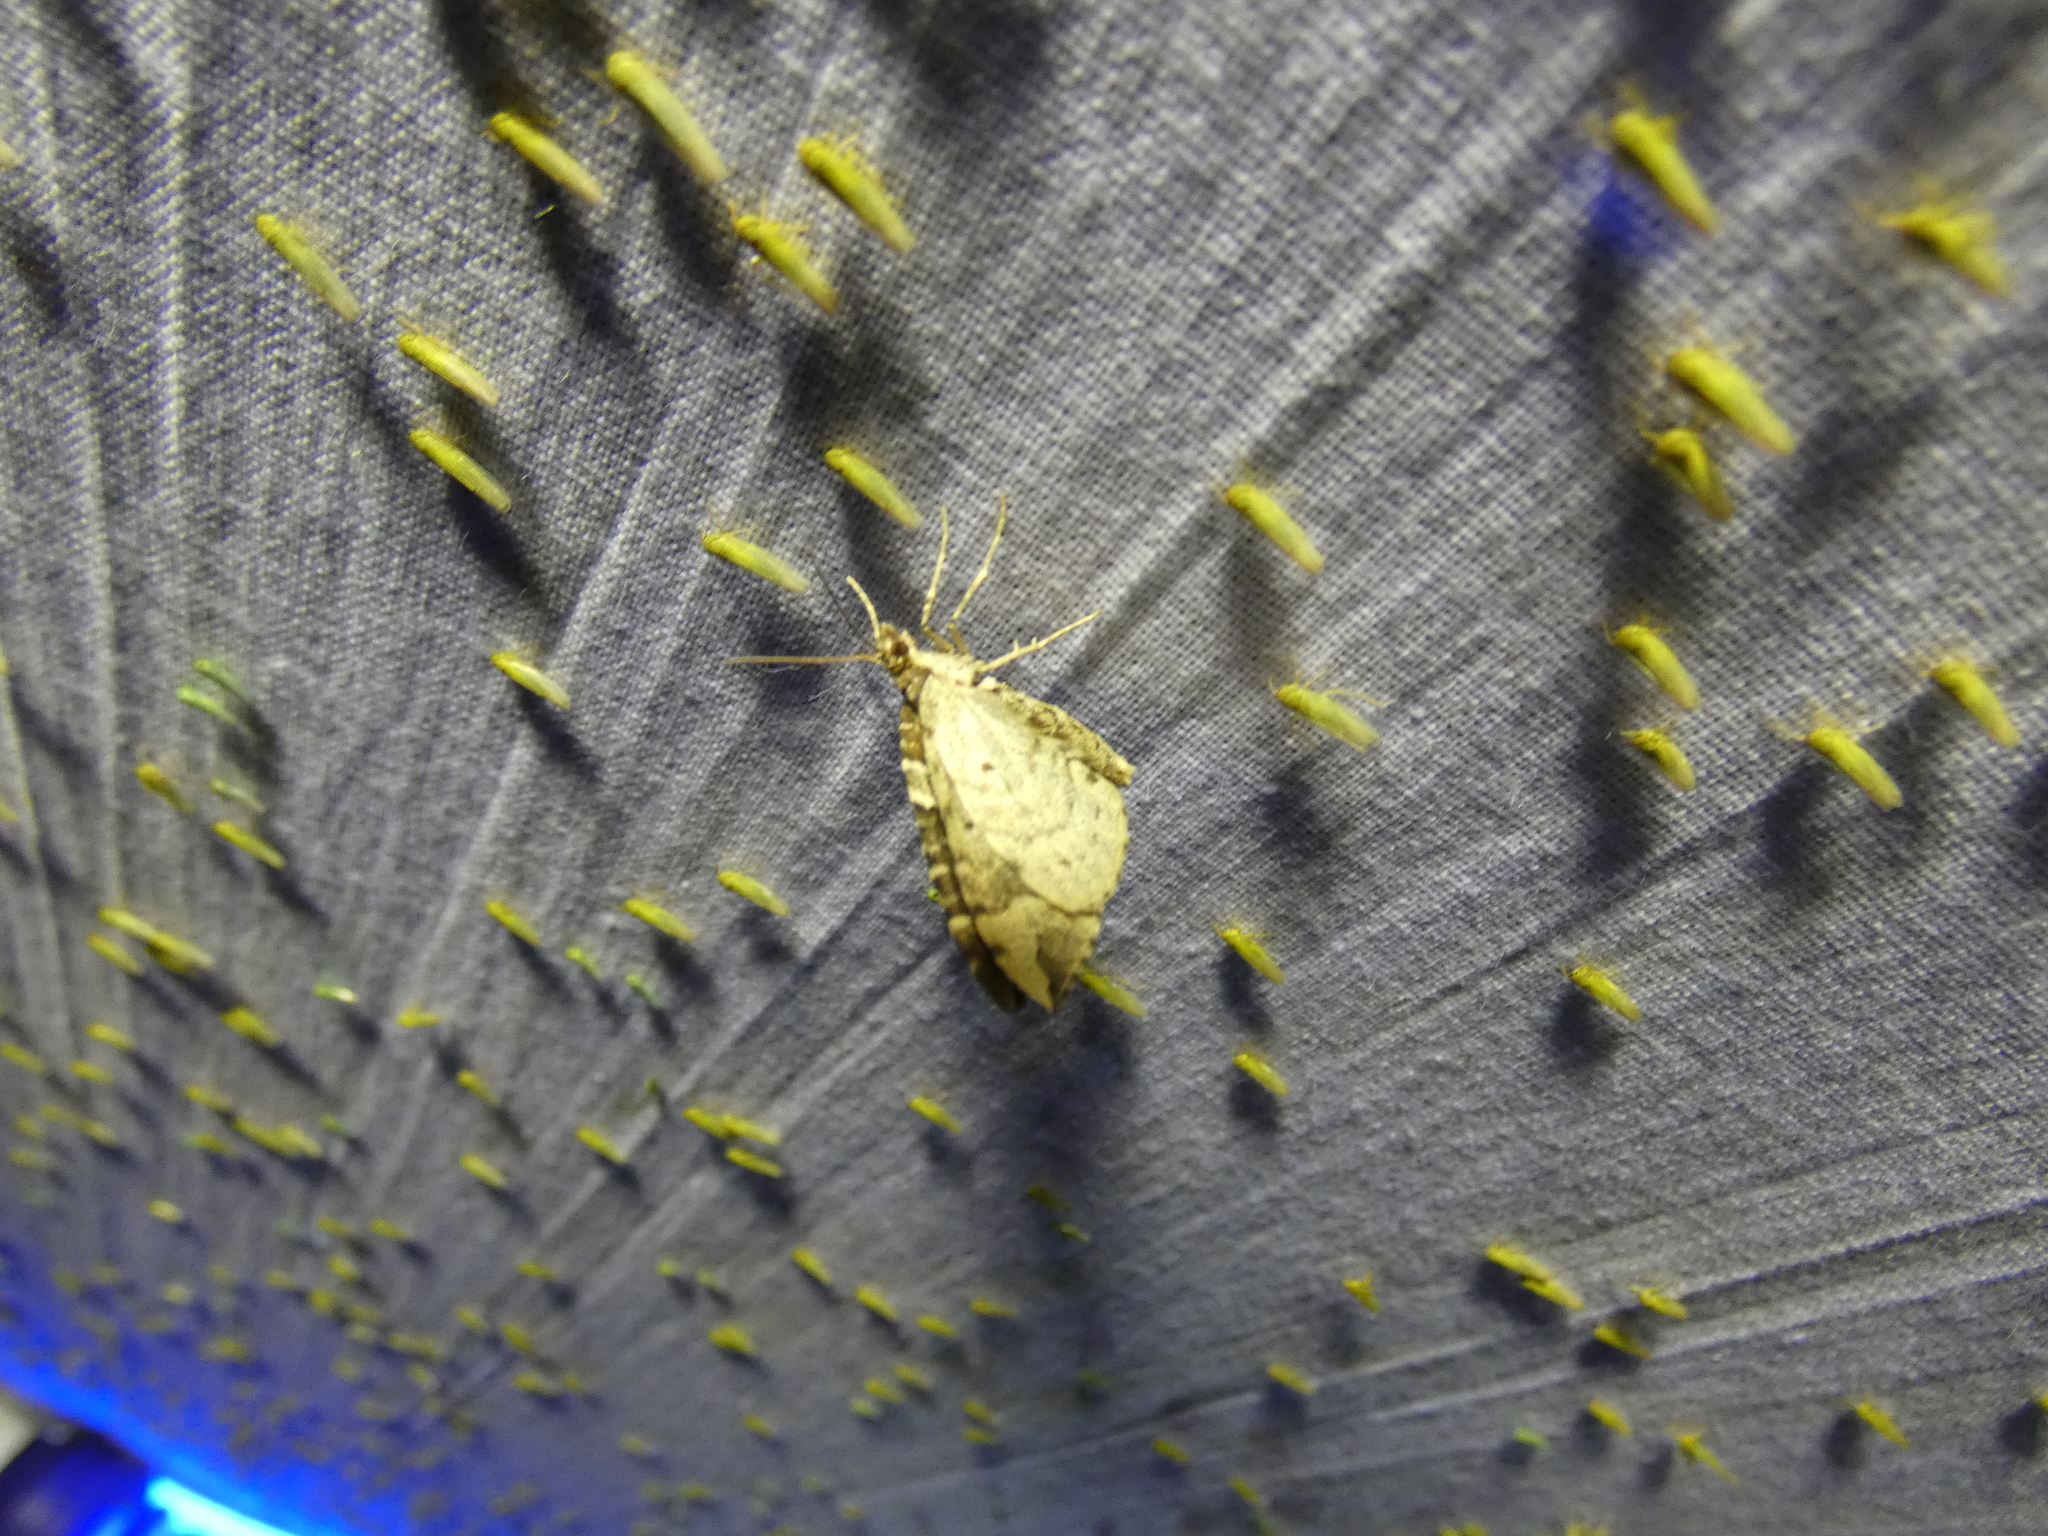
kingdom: Animalia
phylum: Arthropoda
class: Insecta
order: Lepidoptera
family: Geometridae
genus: Eulithis
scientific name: Eulithis prunata
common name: Phoenix
